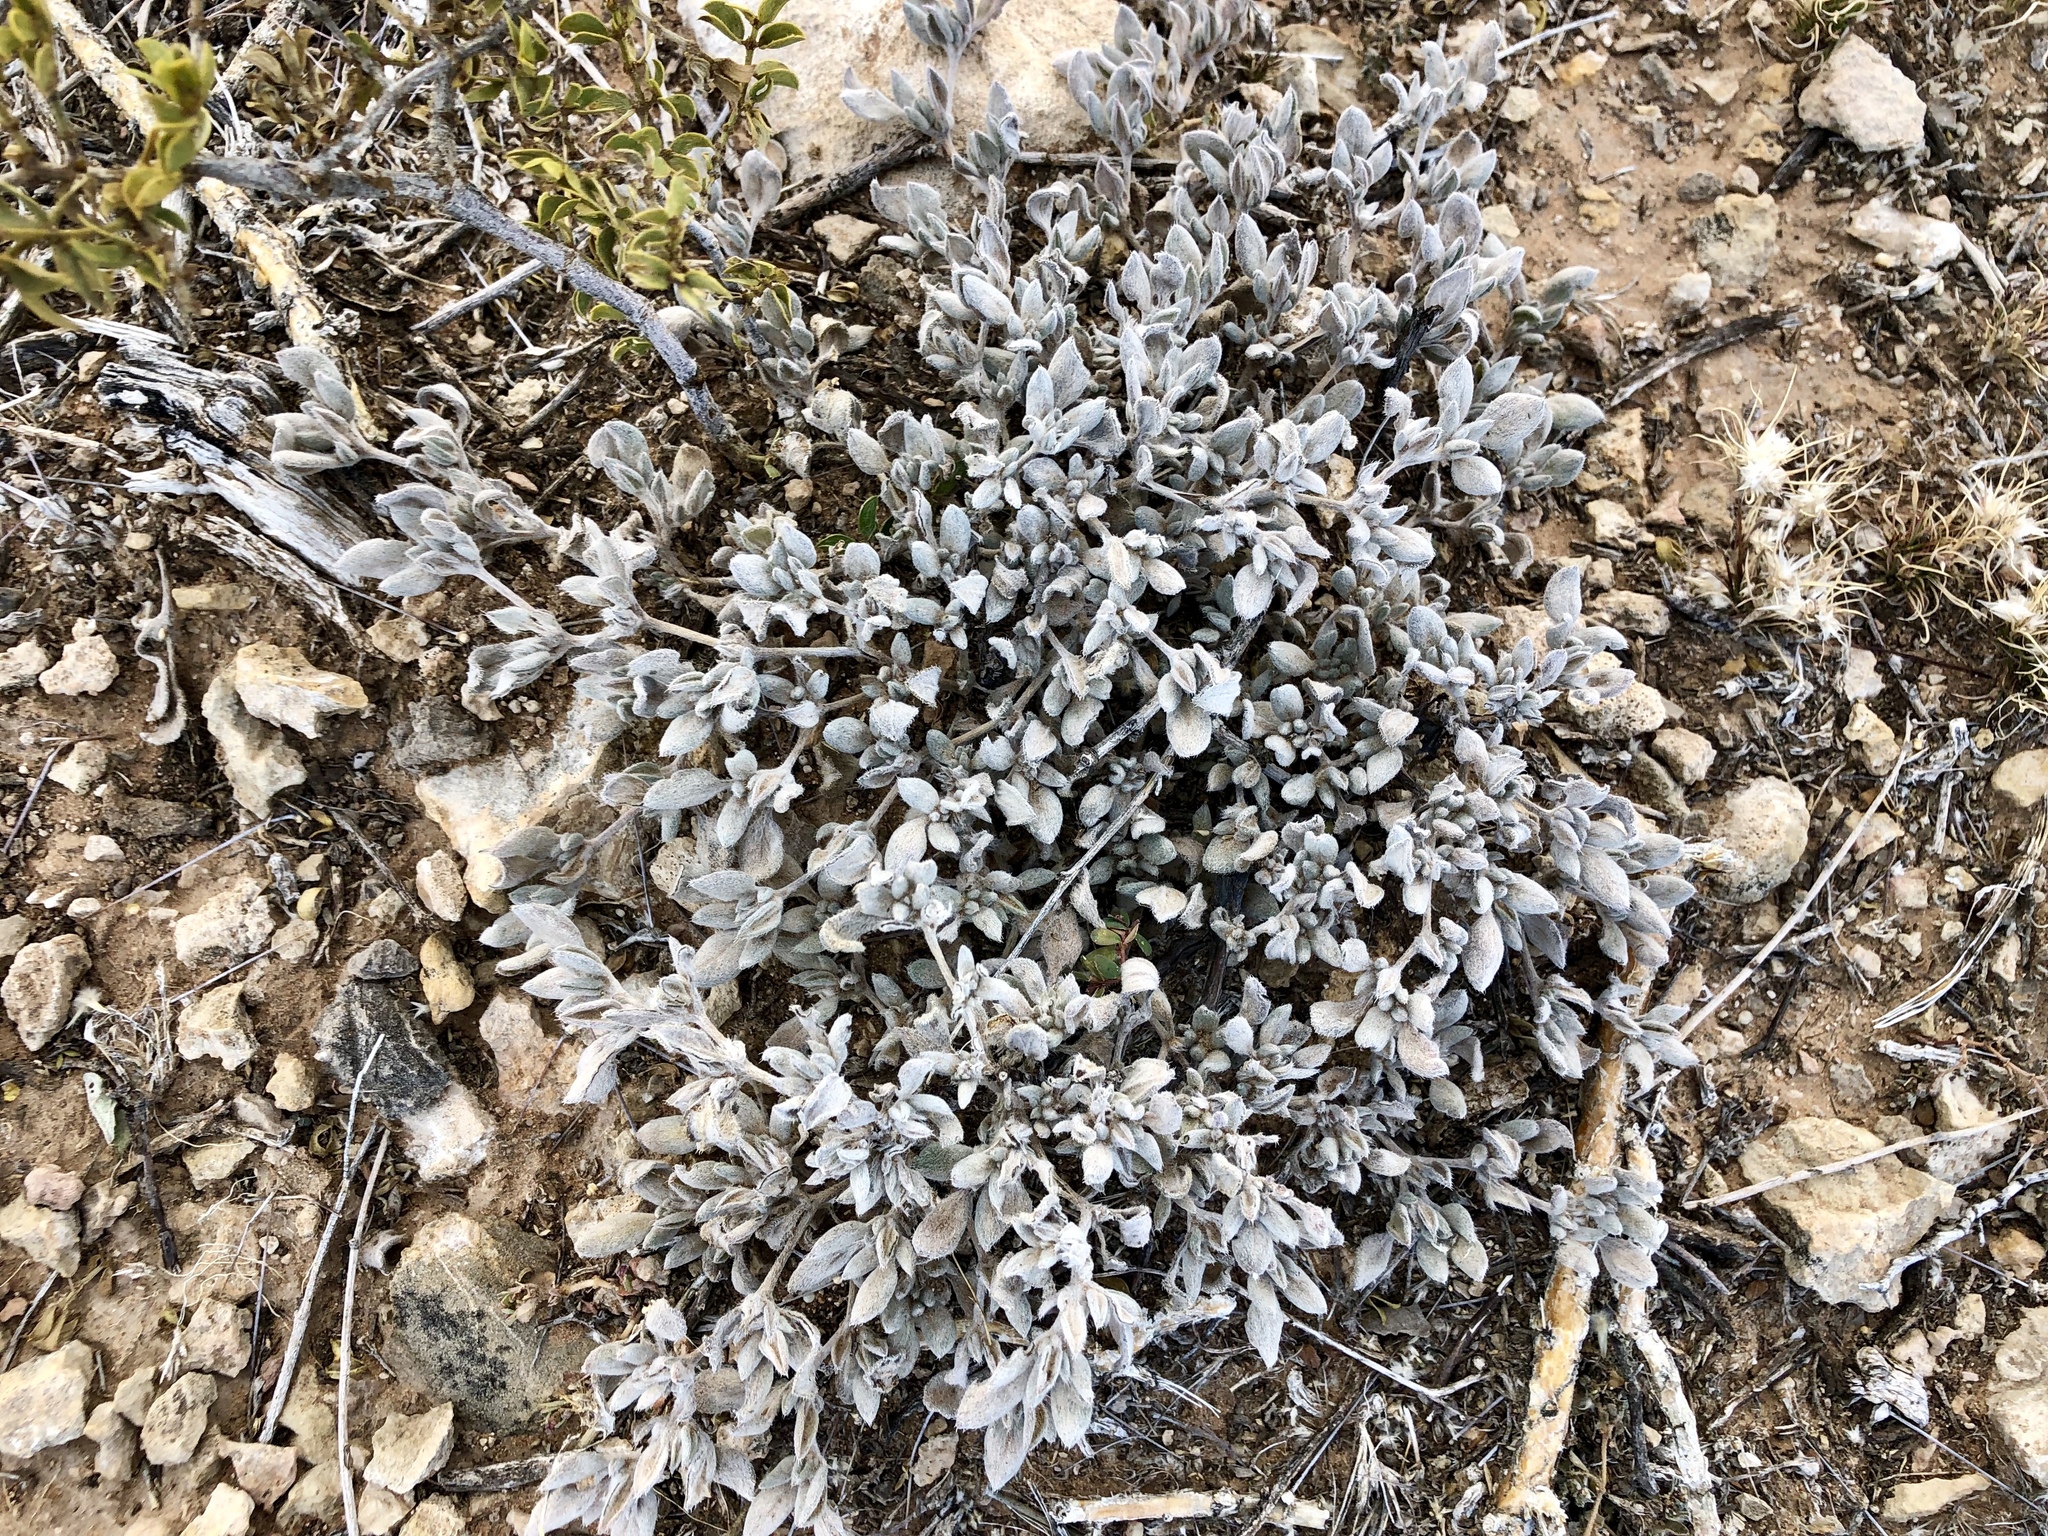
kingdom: Plantae
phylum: Tracheophyta
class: Magnoliopsida
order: Boraginales
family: Ehretiaceae
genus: Tiquilia
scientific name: Tiquilia canescens
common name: Hairy tiquilia
